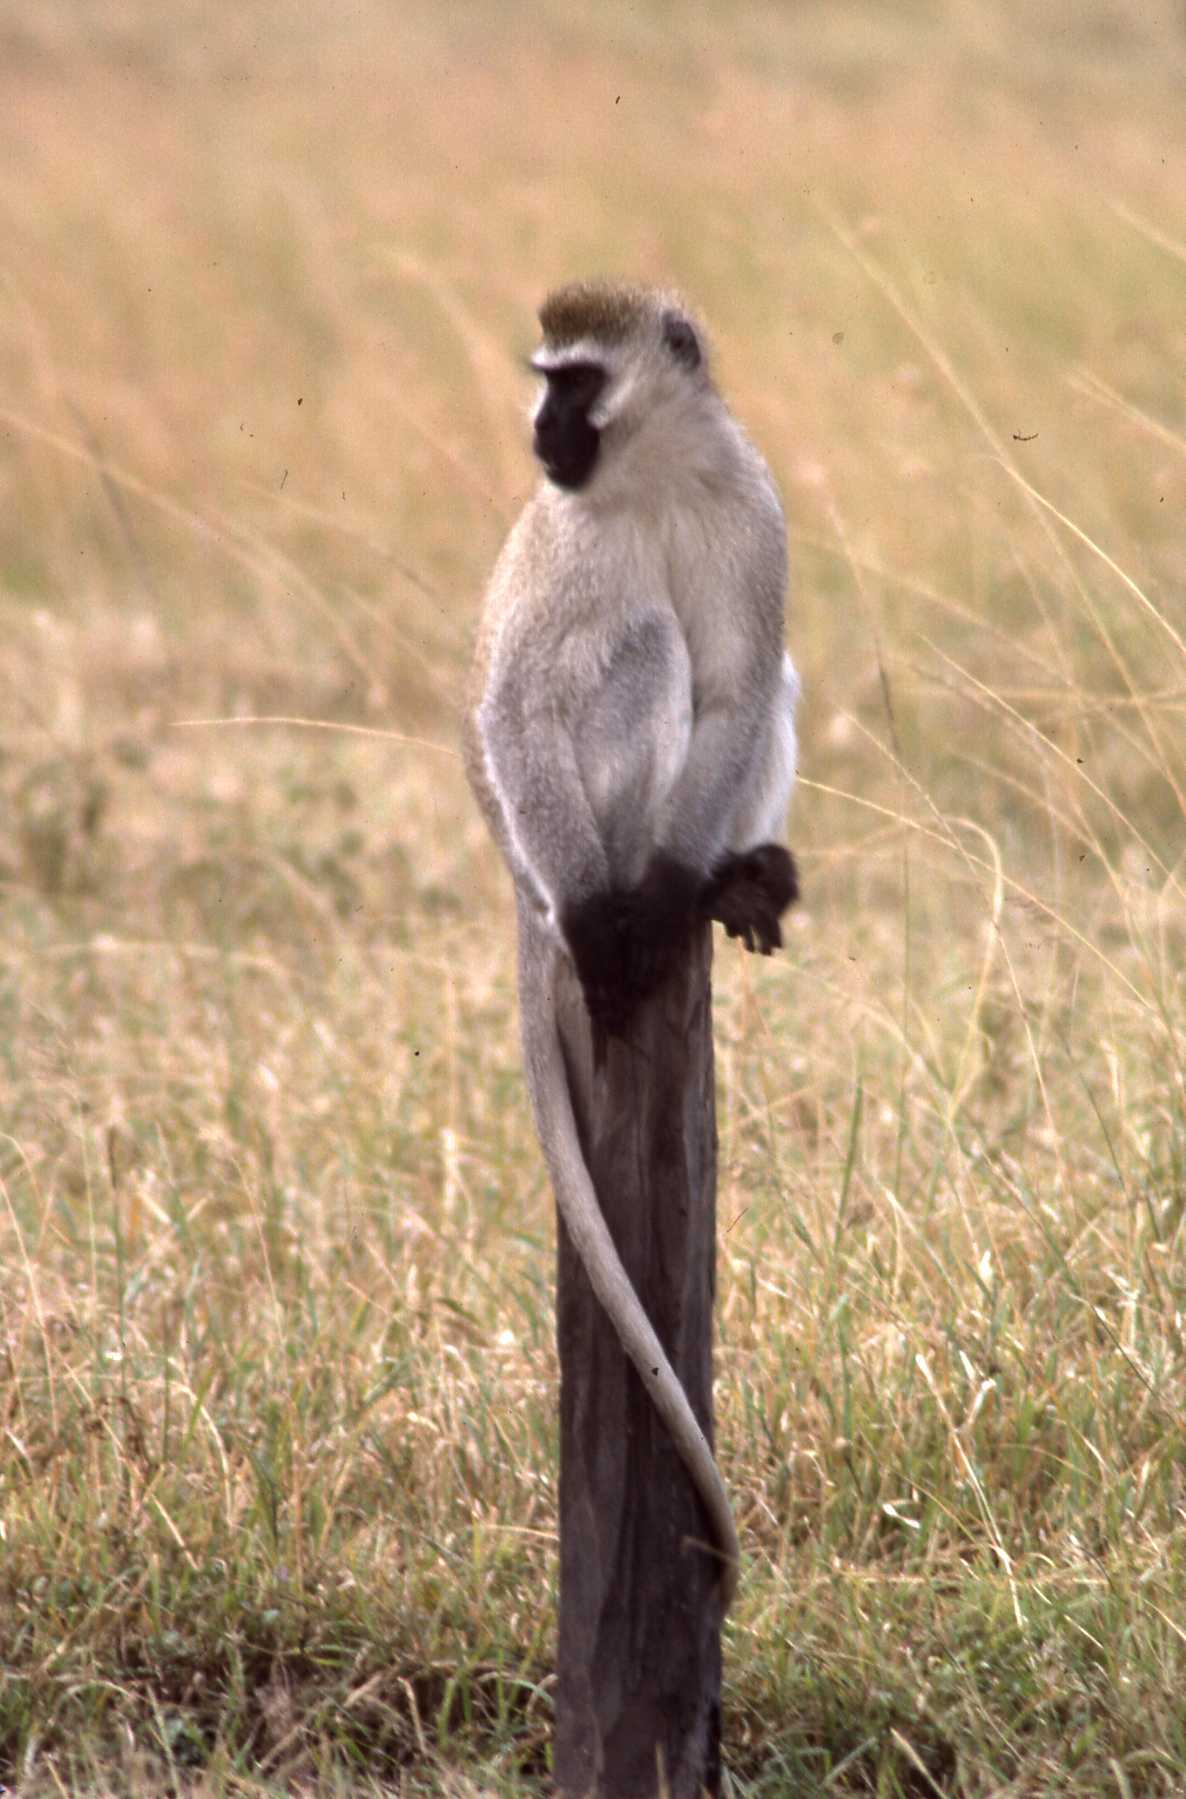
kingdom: Animalia
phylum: Chordata
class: Mammalia
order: Primates
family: Cercopithecidae
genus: Chlorocebus
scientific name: Chlorocebus pygerythrus
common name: Vervet monkey
